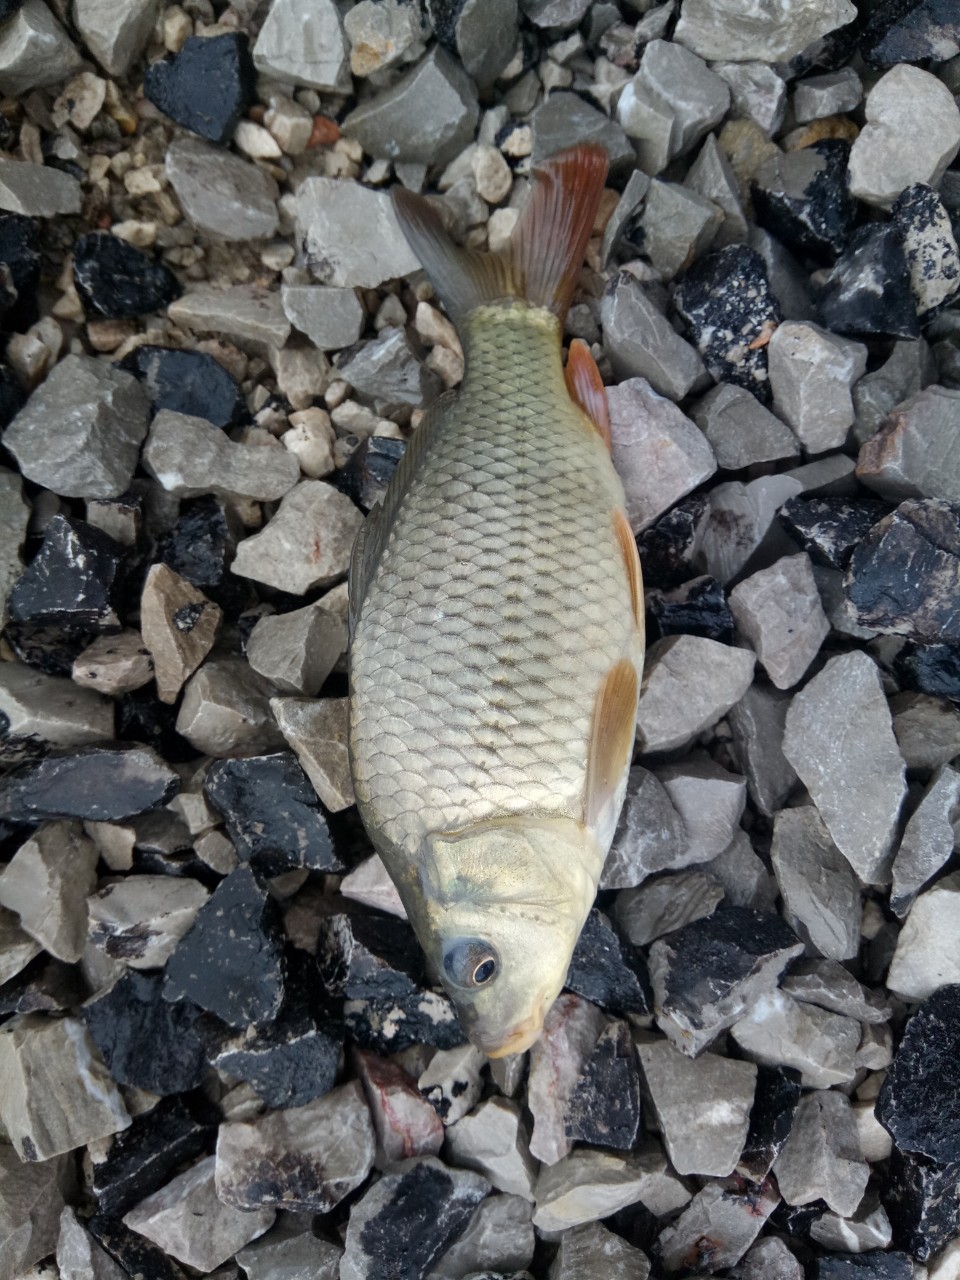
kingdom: Animalia
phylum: Chordata
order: Cypriniformes
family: Cyprinidae
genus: Cyprinus
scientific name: Cyprinus carpio
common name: Common carp
